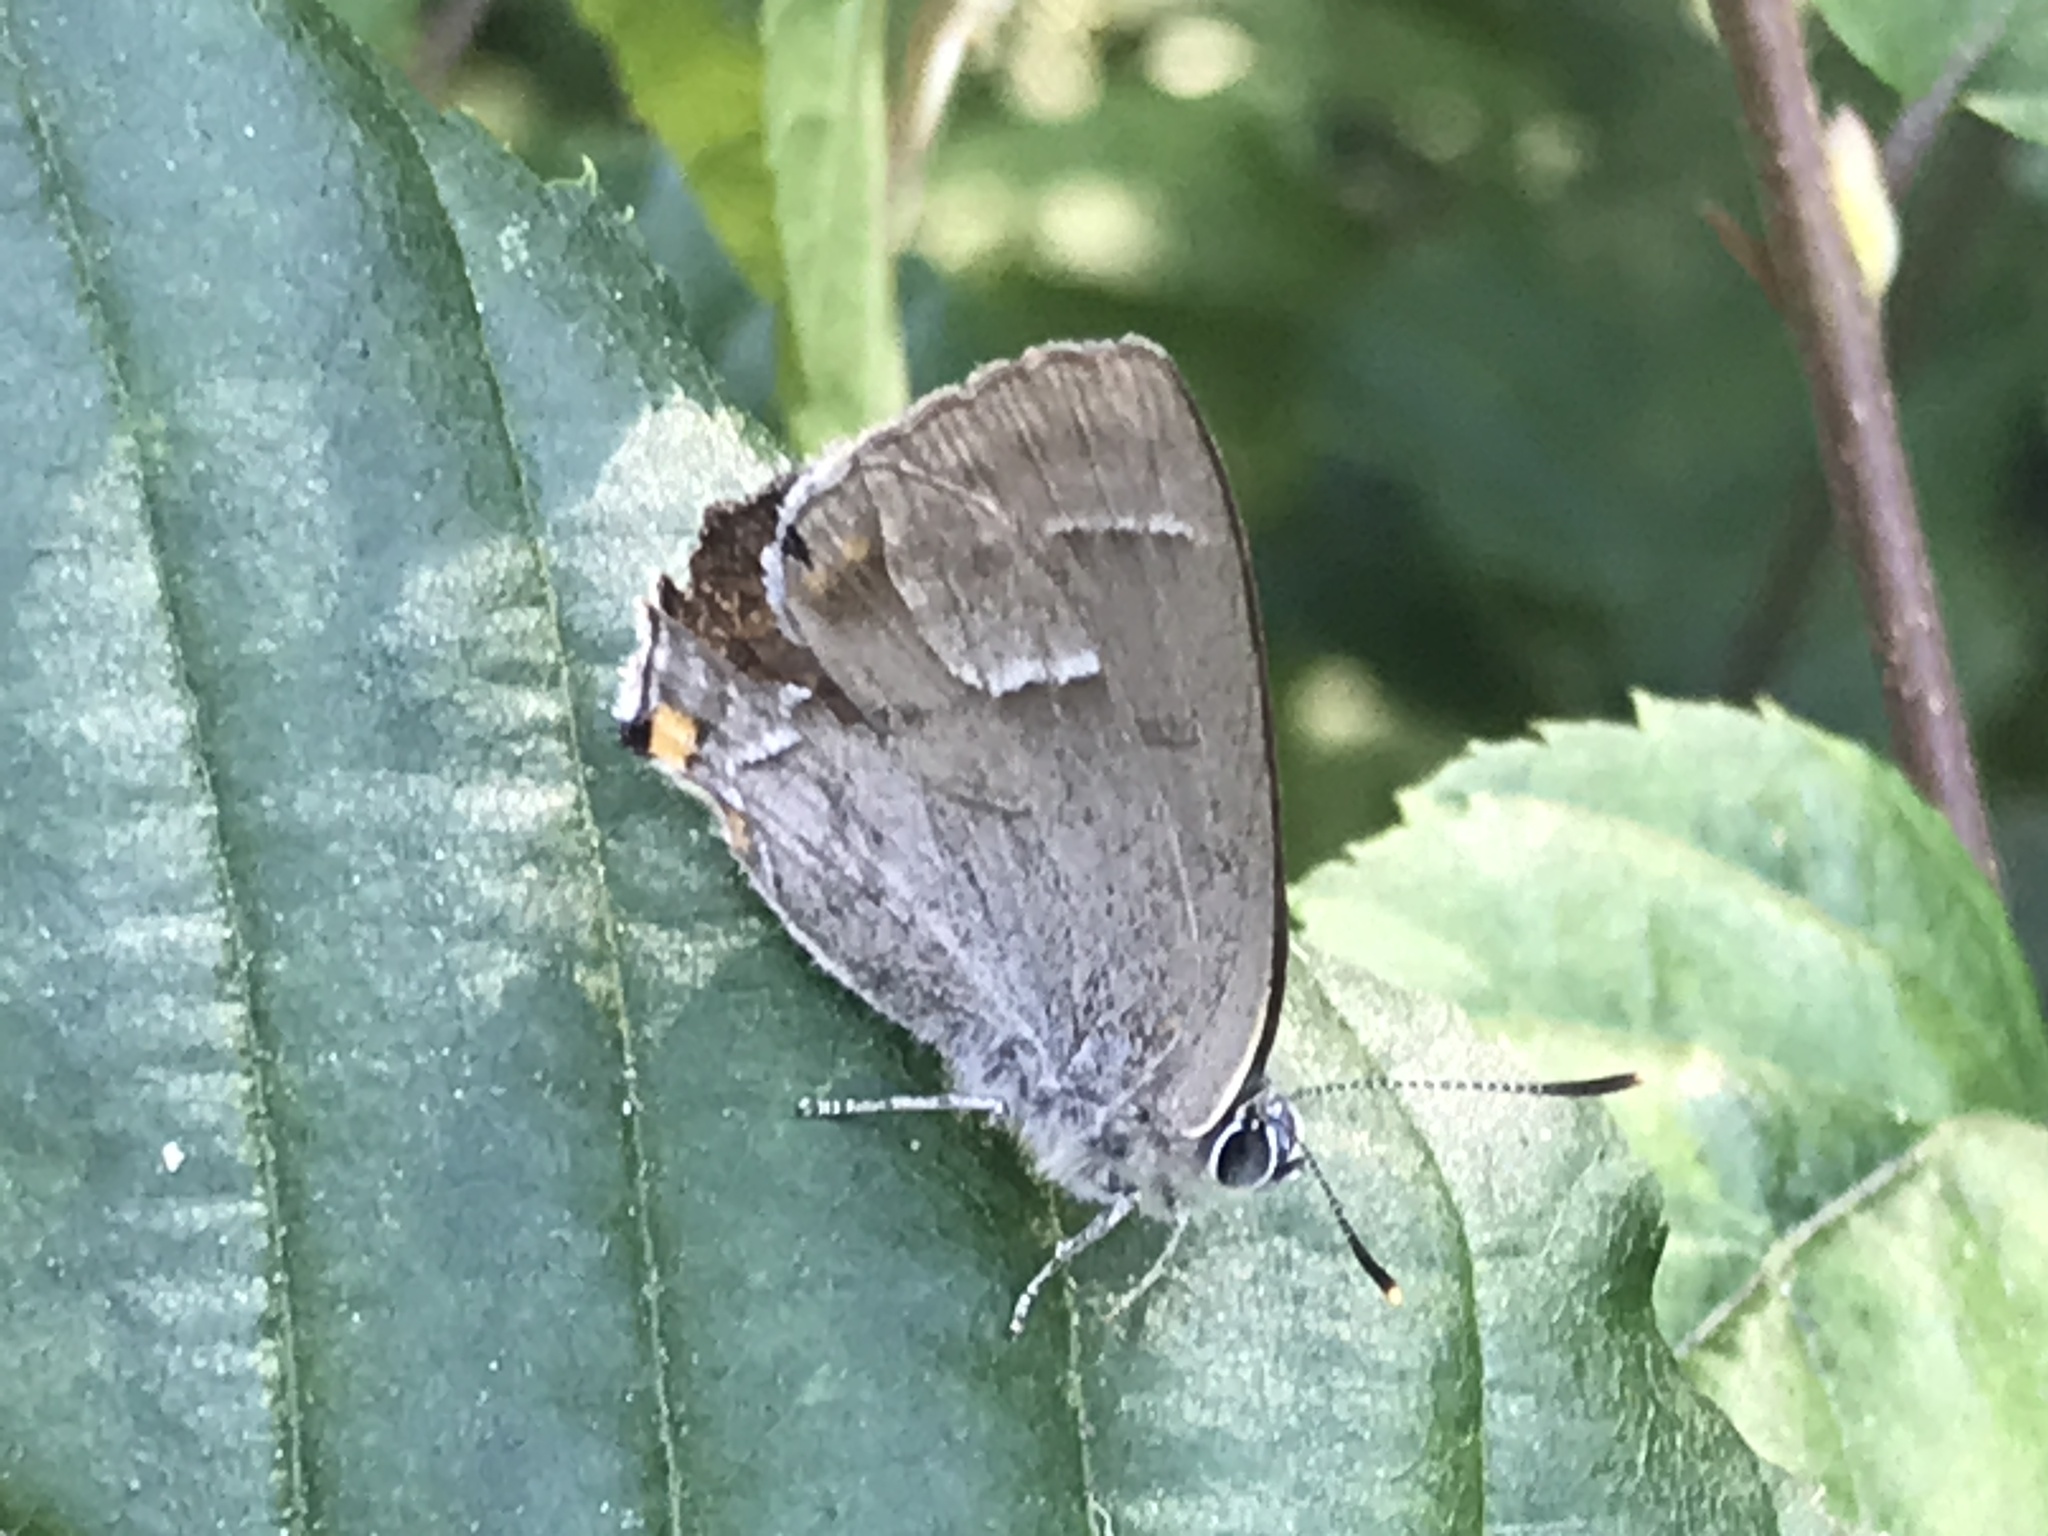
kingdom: Animalia
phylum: Arthropoda
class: Insecta
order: Lepidoptera
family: Lycaenidae
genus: Quercusia
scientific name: Quercusia quercus
